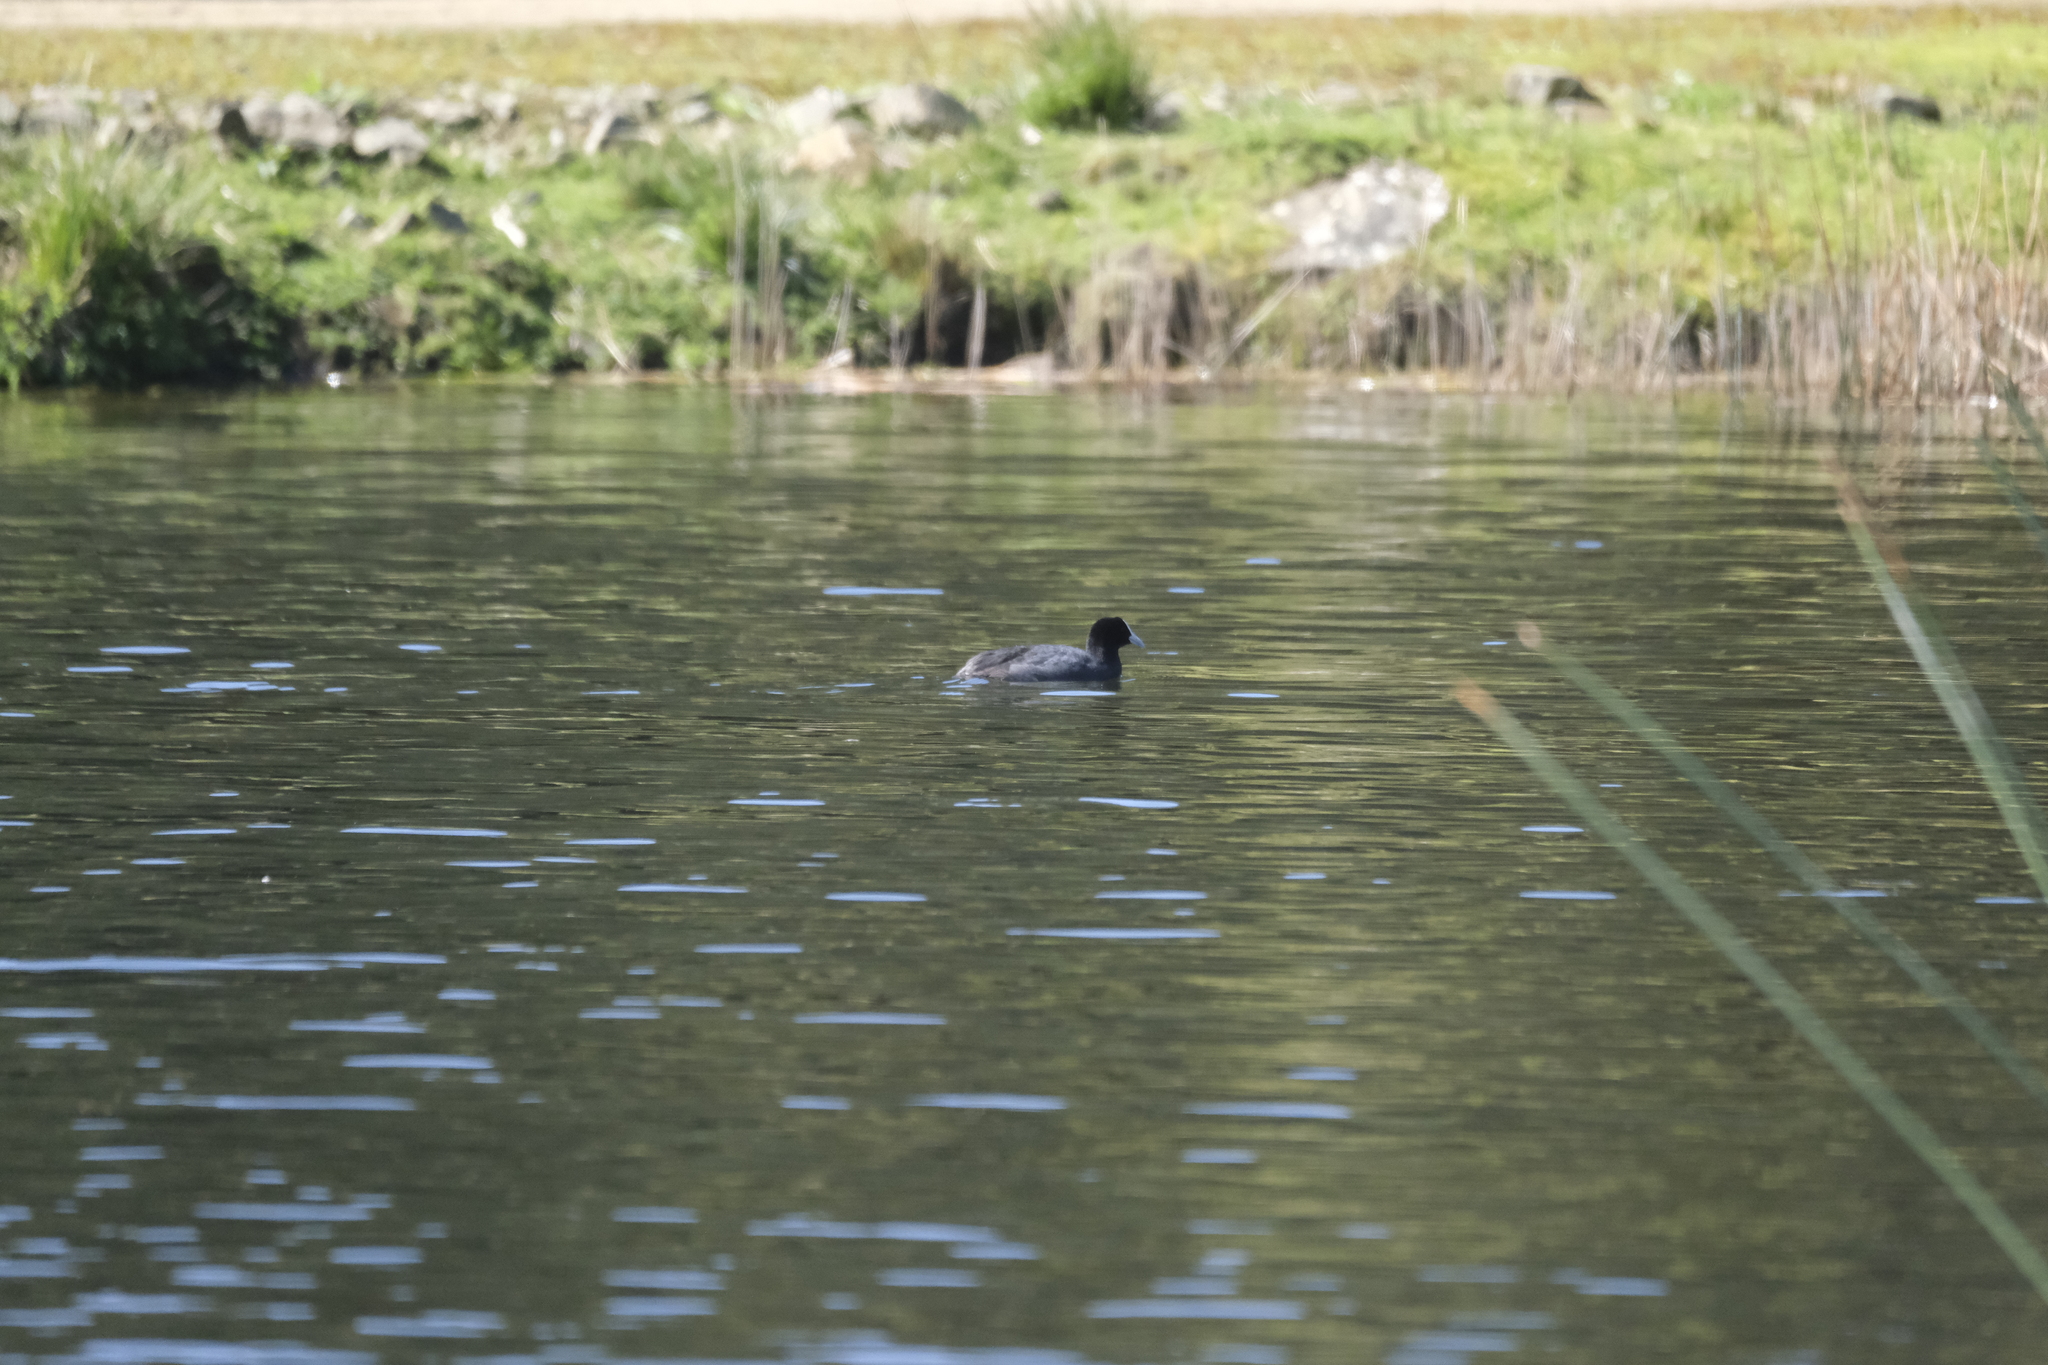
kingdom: Animalia
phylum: Chordata
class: Aves
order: Gruiformes
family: Rallidae
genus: Fulica
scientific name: Fulica atra
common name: Eurasian coot
